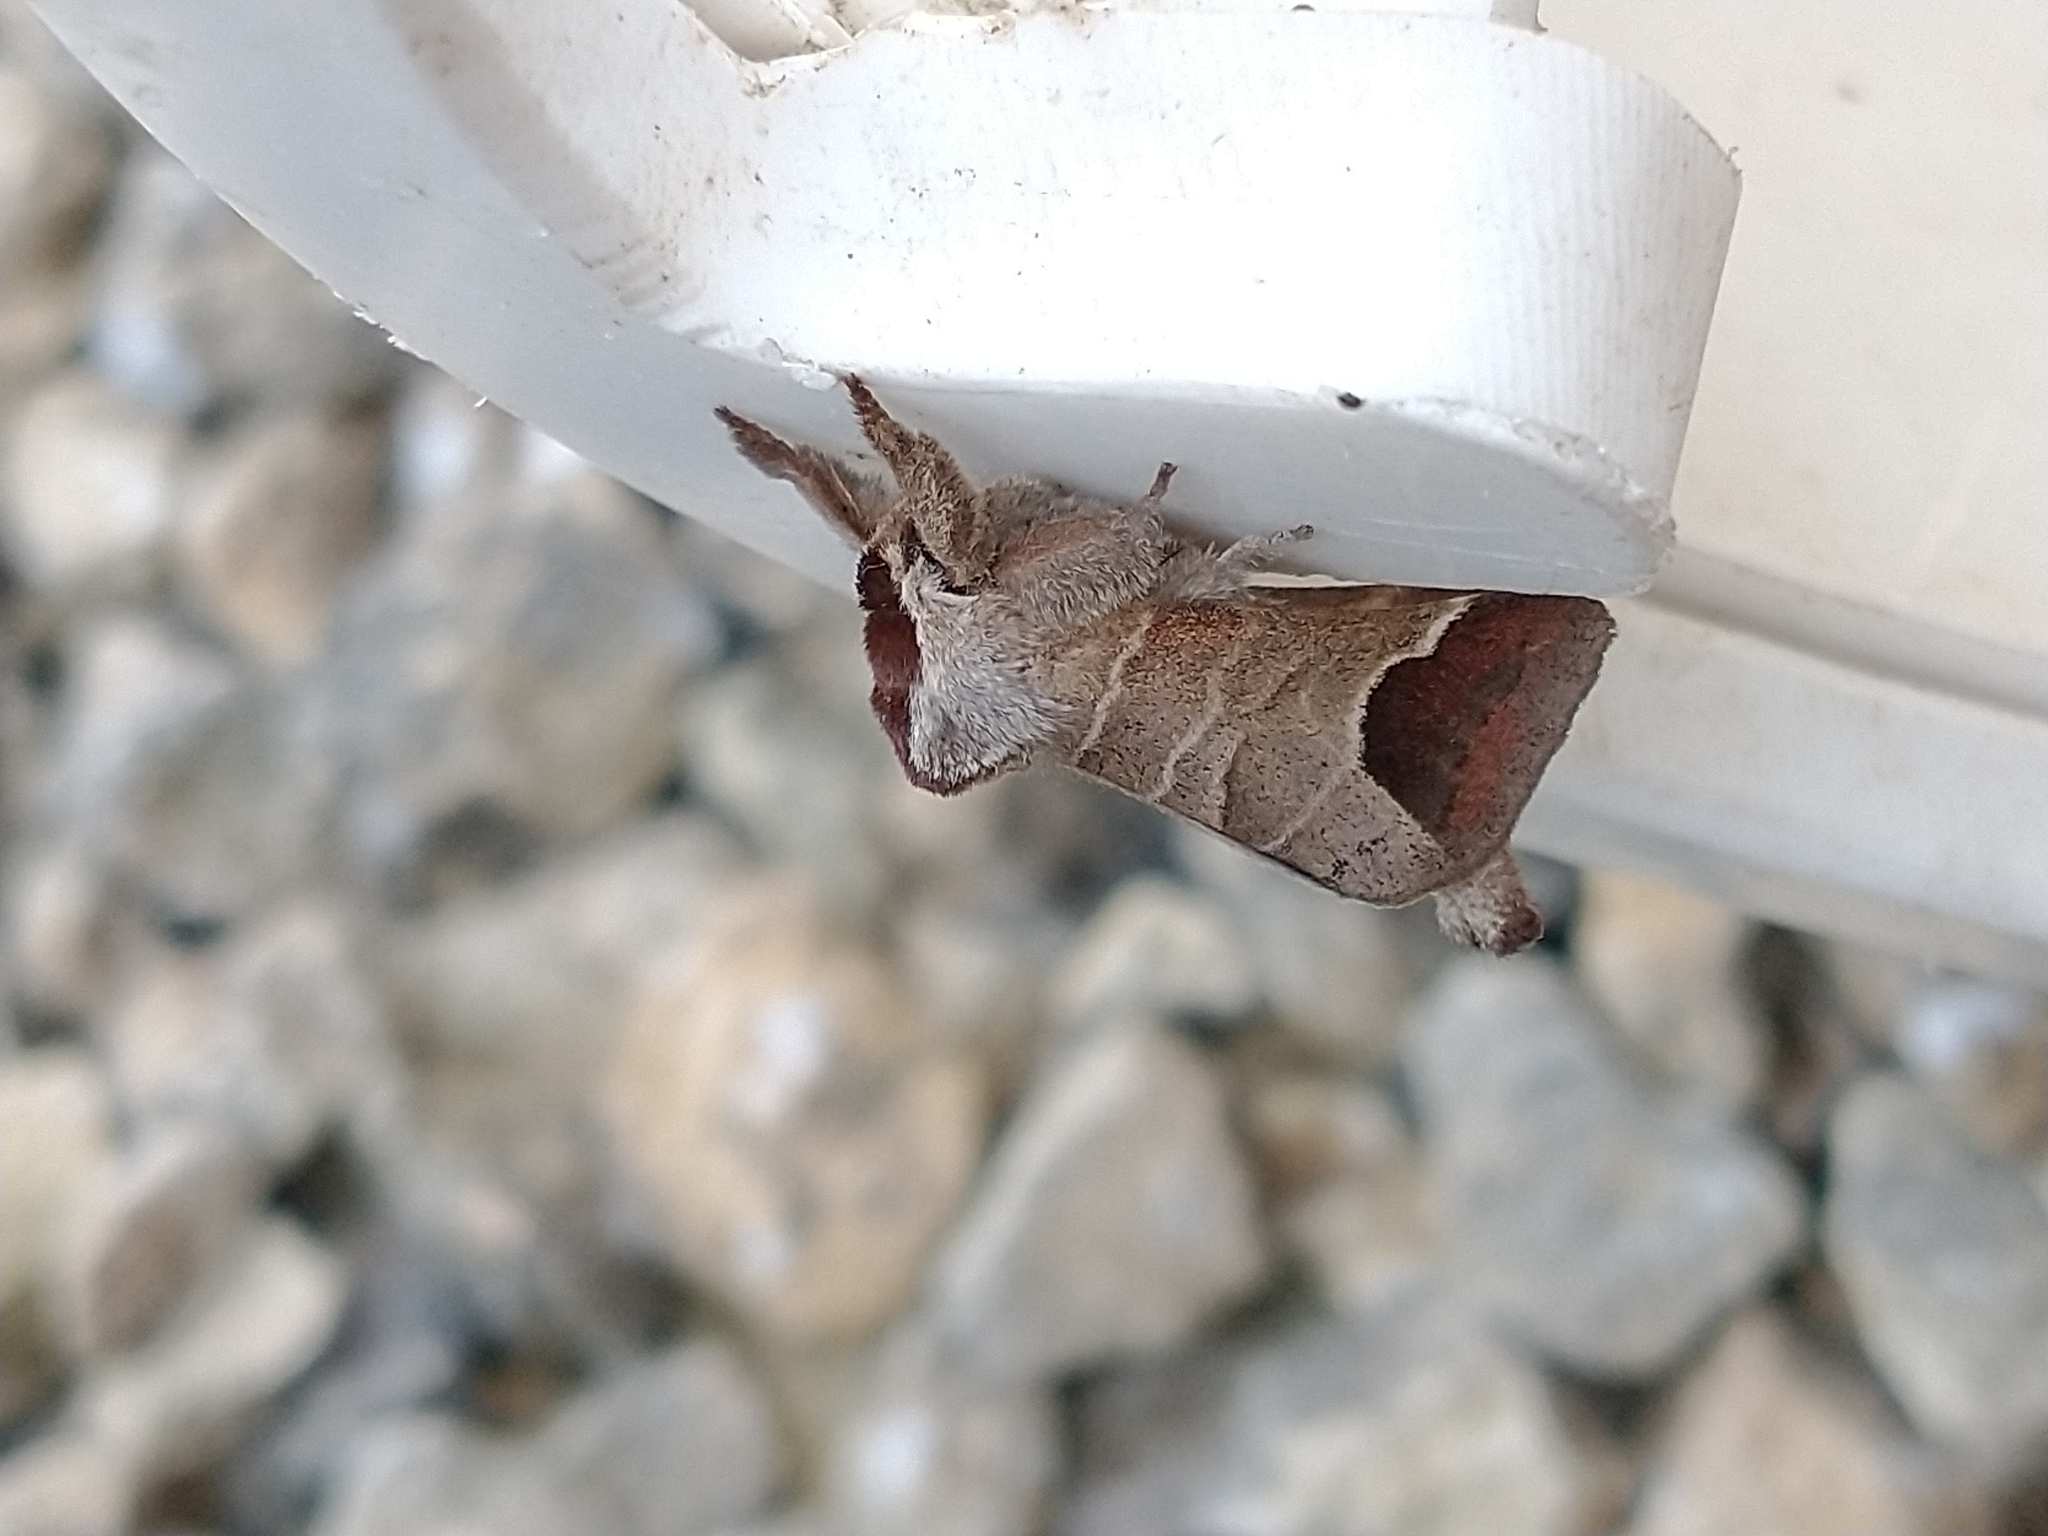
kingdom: Animalia
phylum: Arthropoda
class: Insecta
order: Lepidoptera
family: Notodontidae
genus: Clostera
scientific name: Clostera curtula
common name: Chocolate-tip
